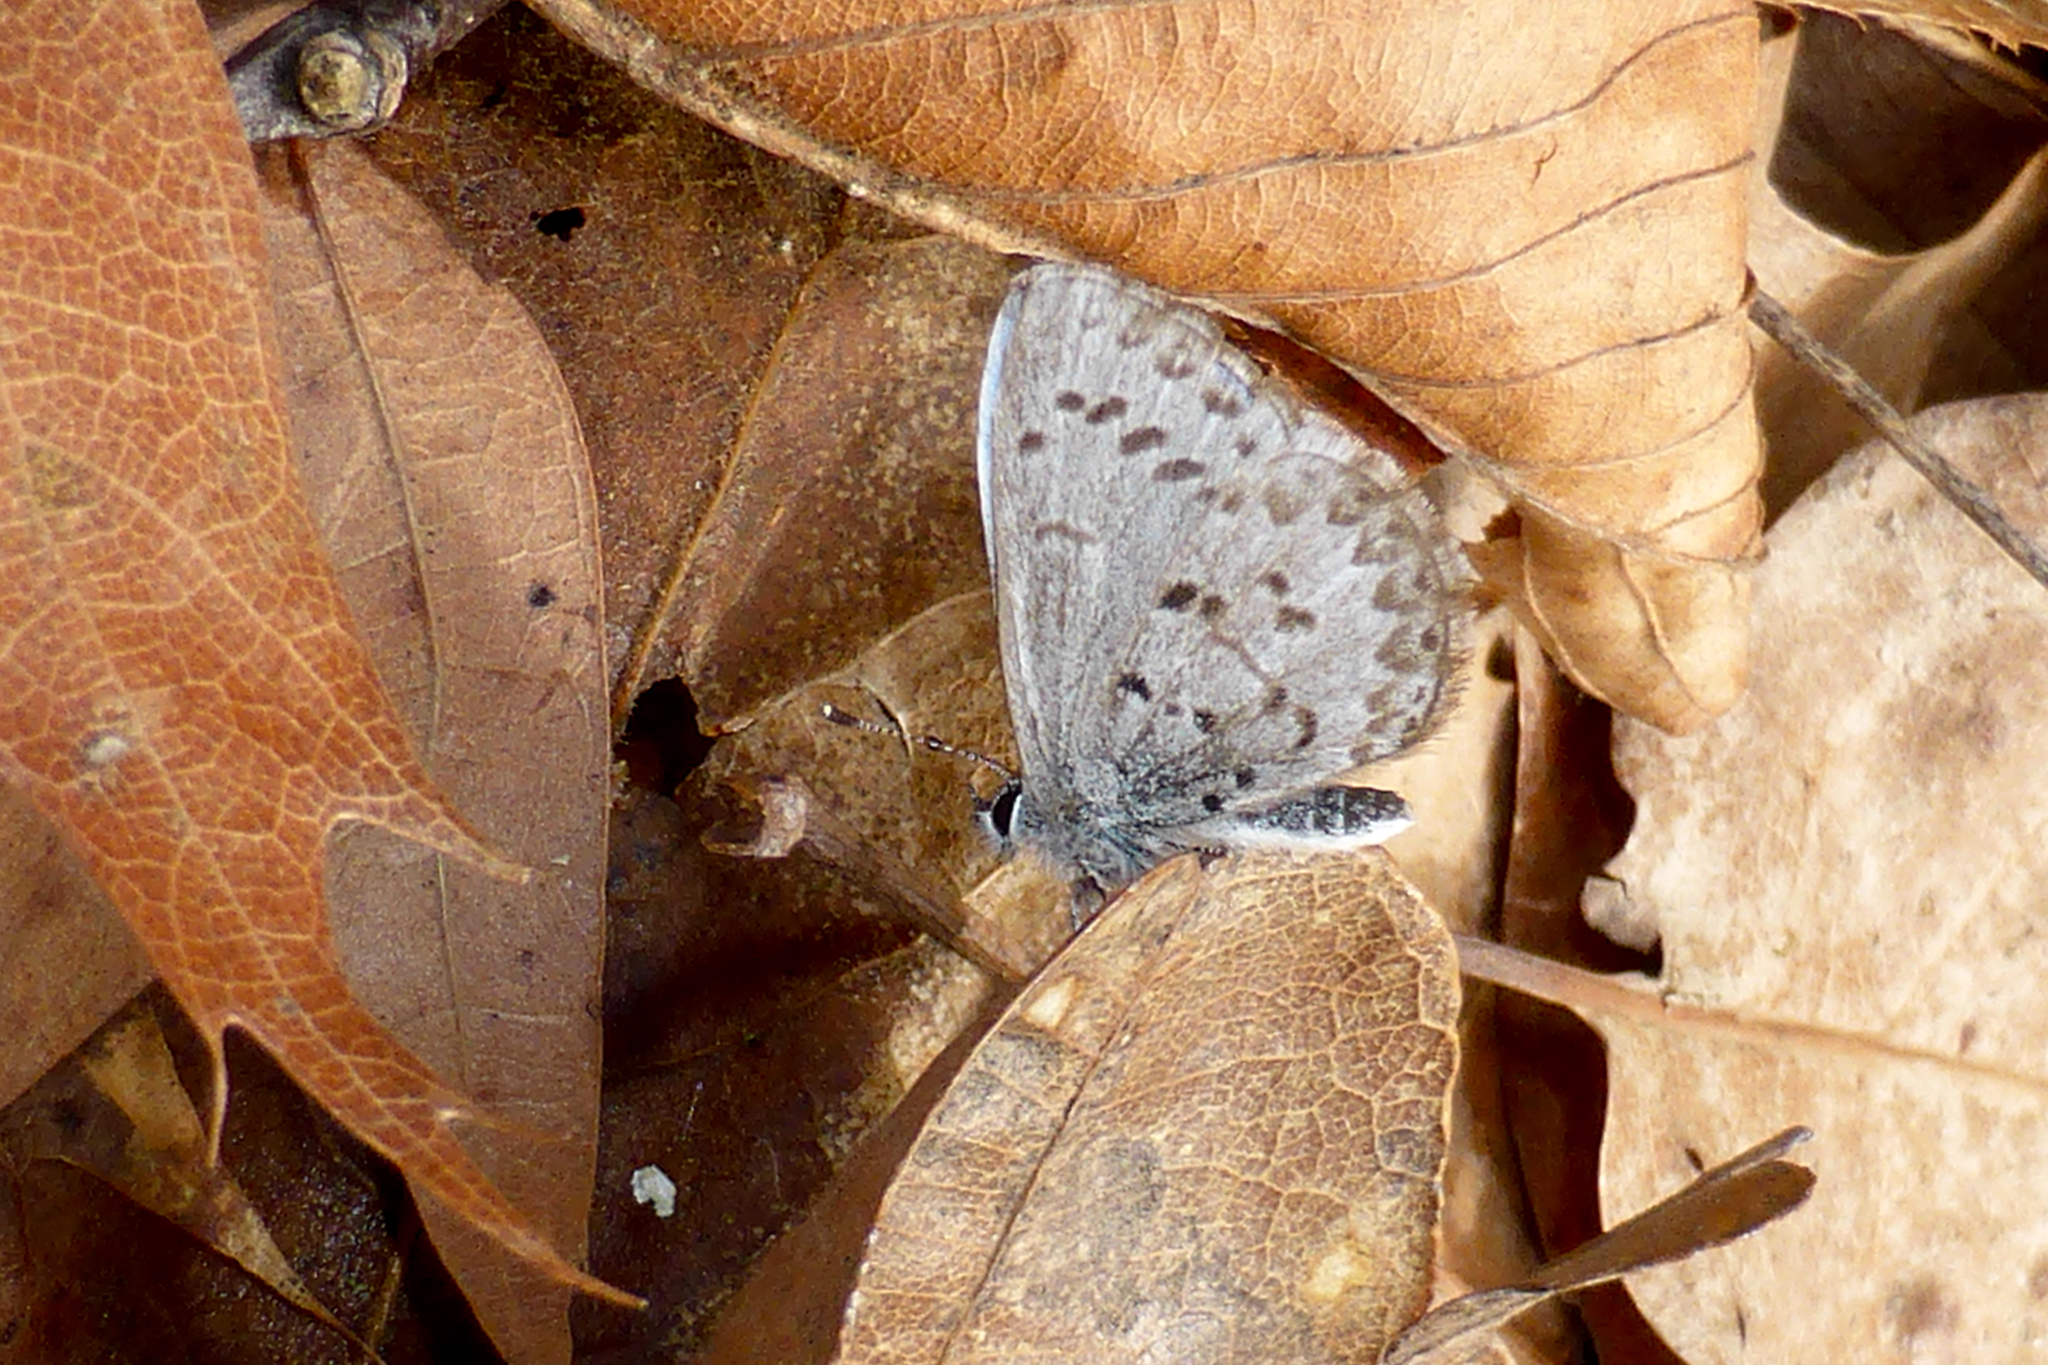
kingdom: Animalia
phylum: Arthropoda
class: Insecta
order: Lepidoptera
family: Lycaenidae
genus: Celastrina
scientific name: Celastrina ladon
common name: Spring azure
